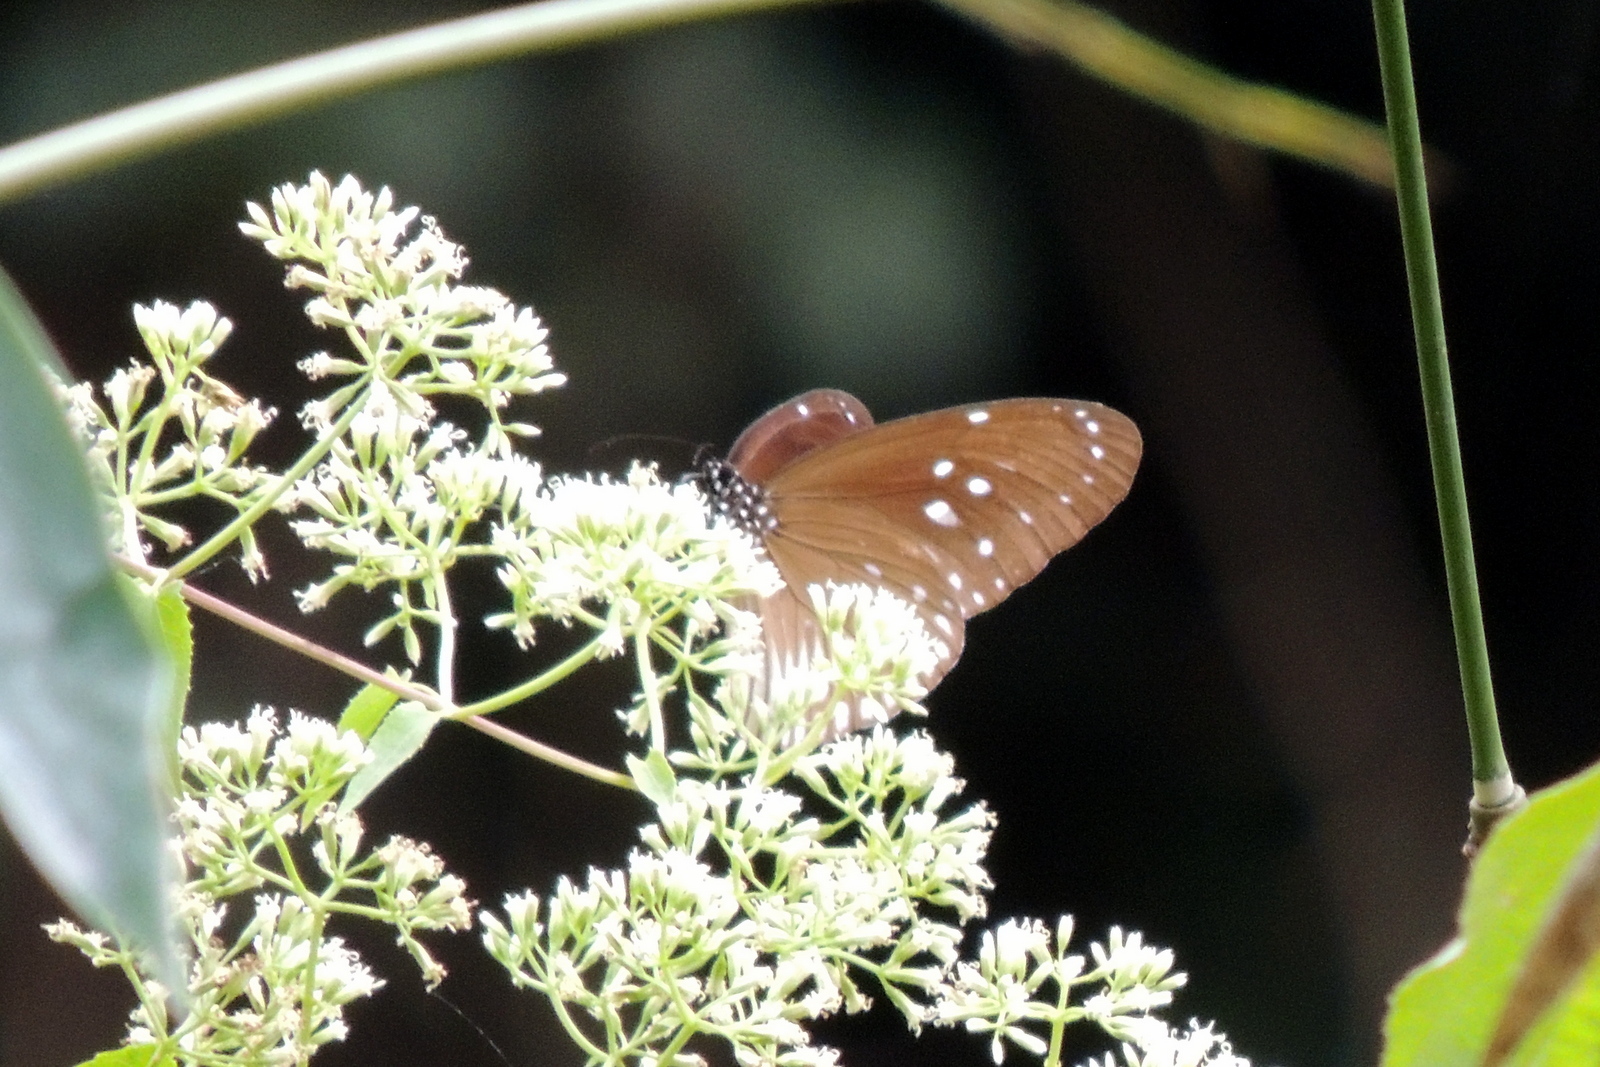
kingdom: Animalia
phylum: Arthropoda
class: Insecta
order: Lepidoptera
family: Nymphalidae
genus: Euploea
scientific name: Euploea doubledayi
